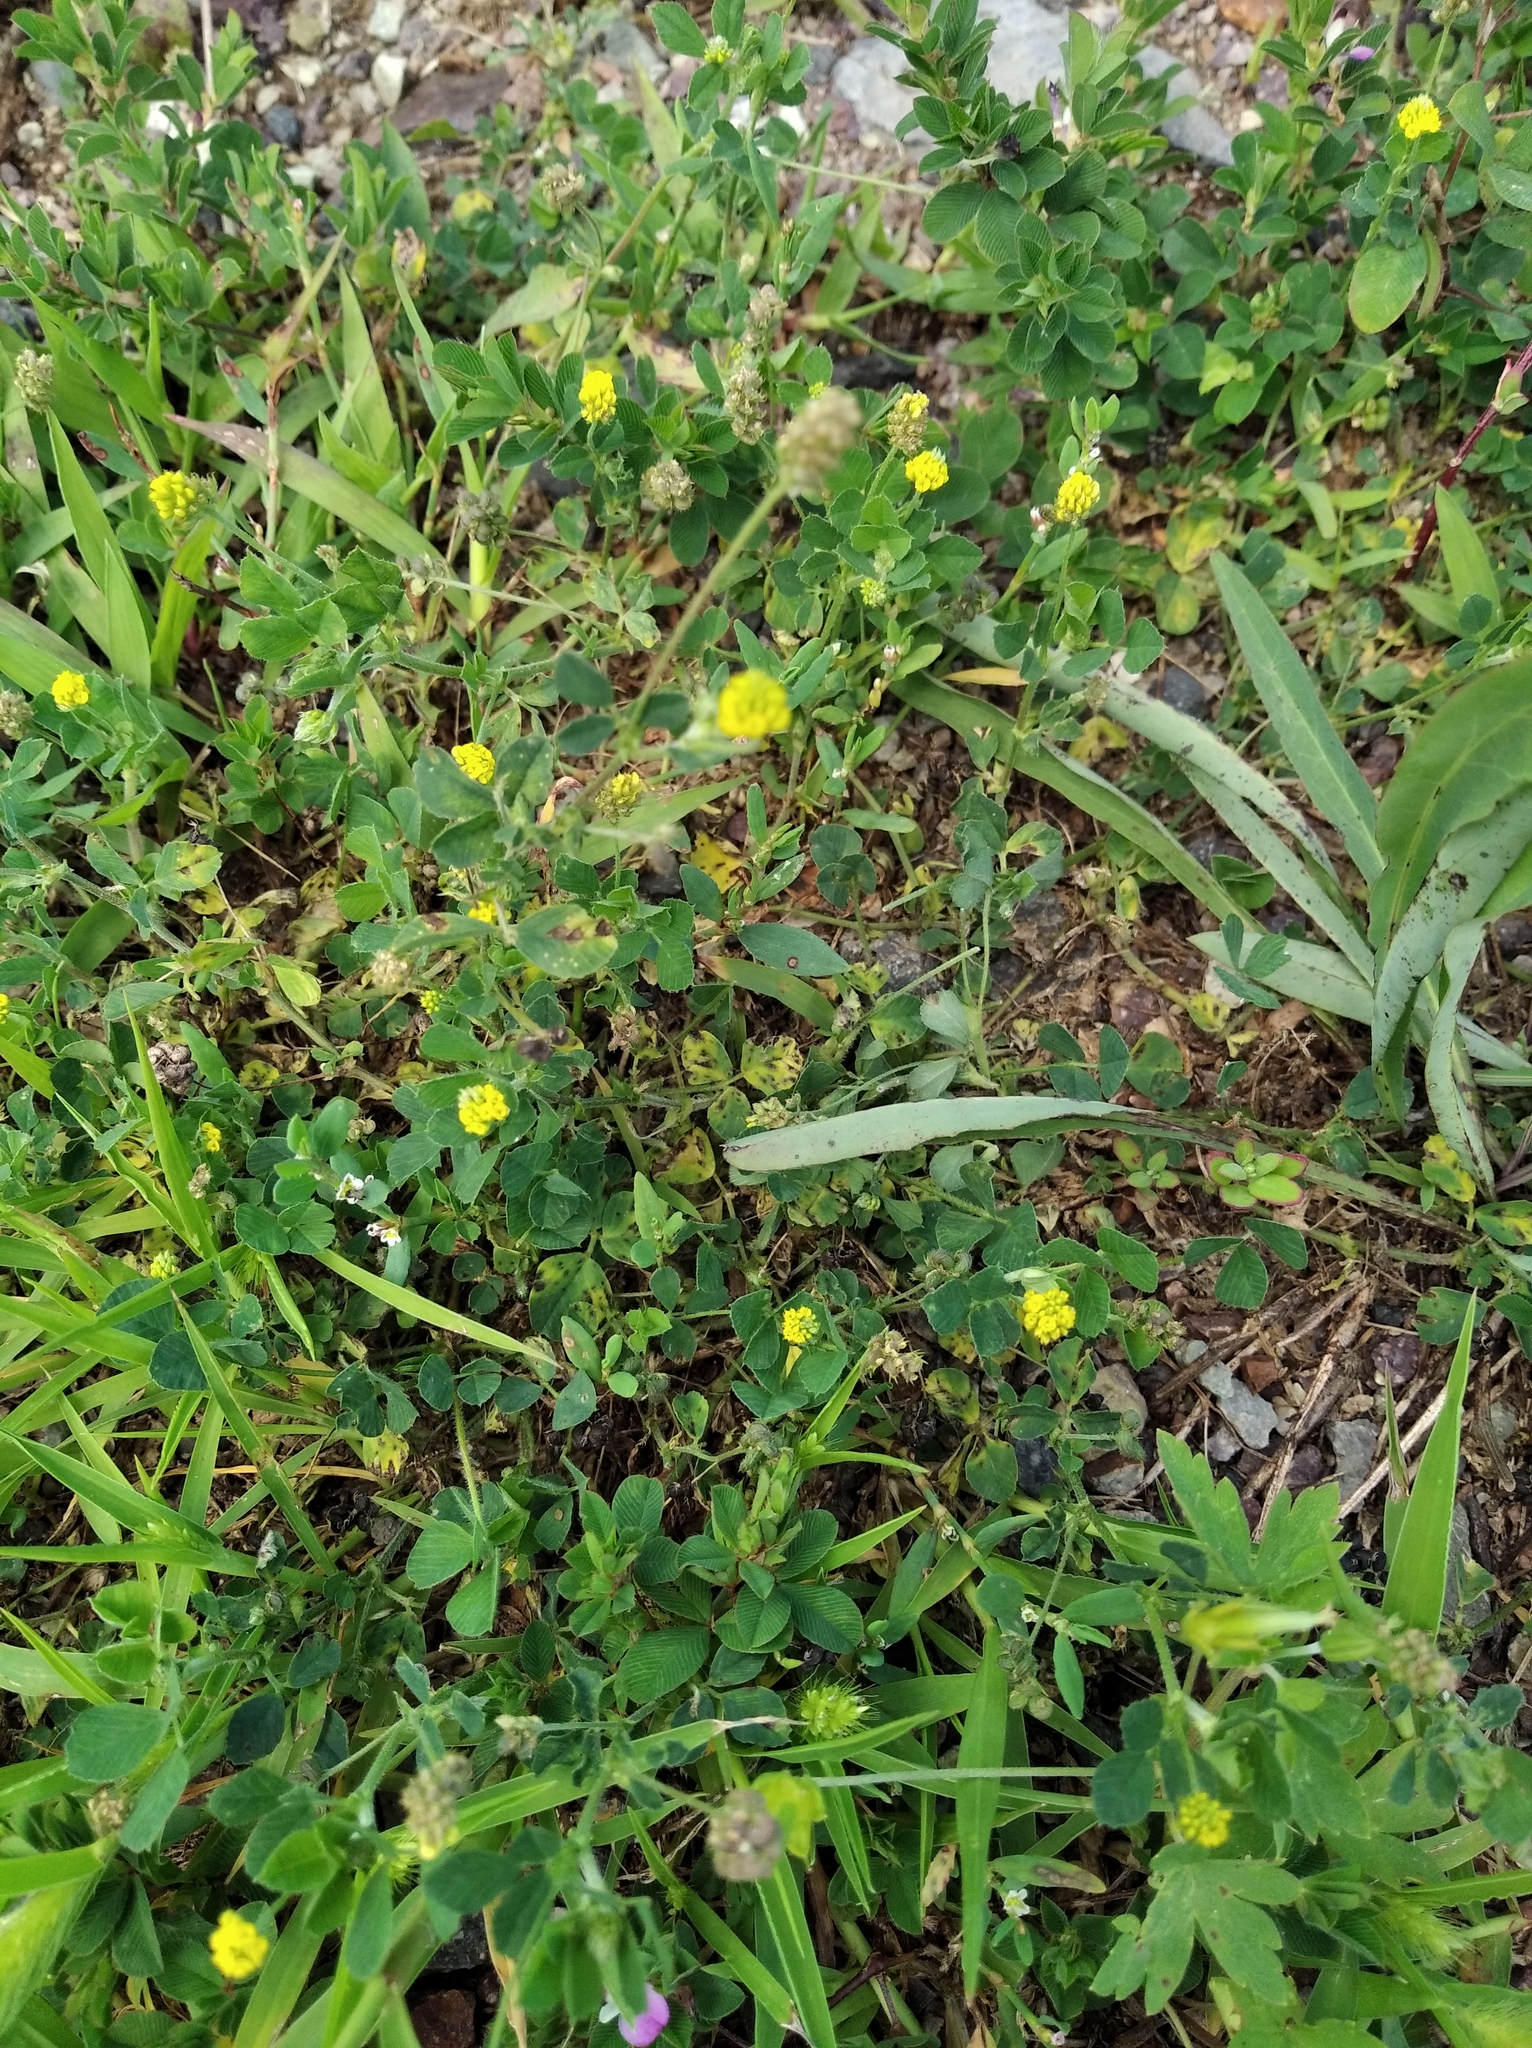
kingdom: Plantae
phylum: Tracheophyta
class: Magnoliopsida
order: Fabales
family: Fabaceae
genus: Medicago
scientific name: Medicago lupulina
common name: Black medick
